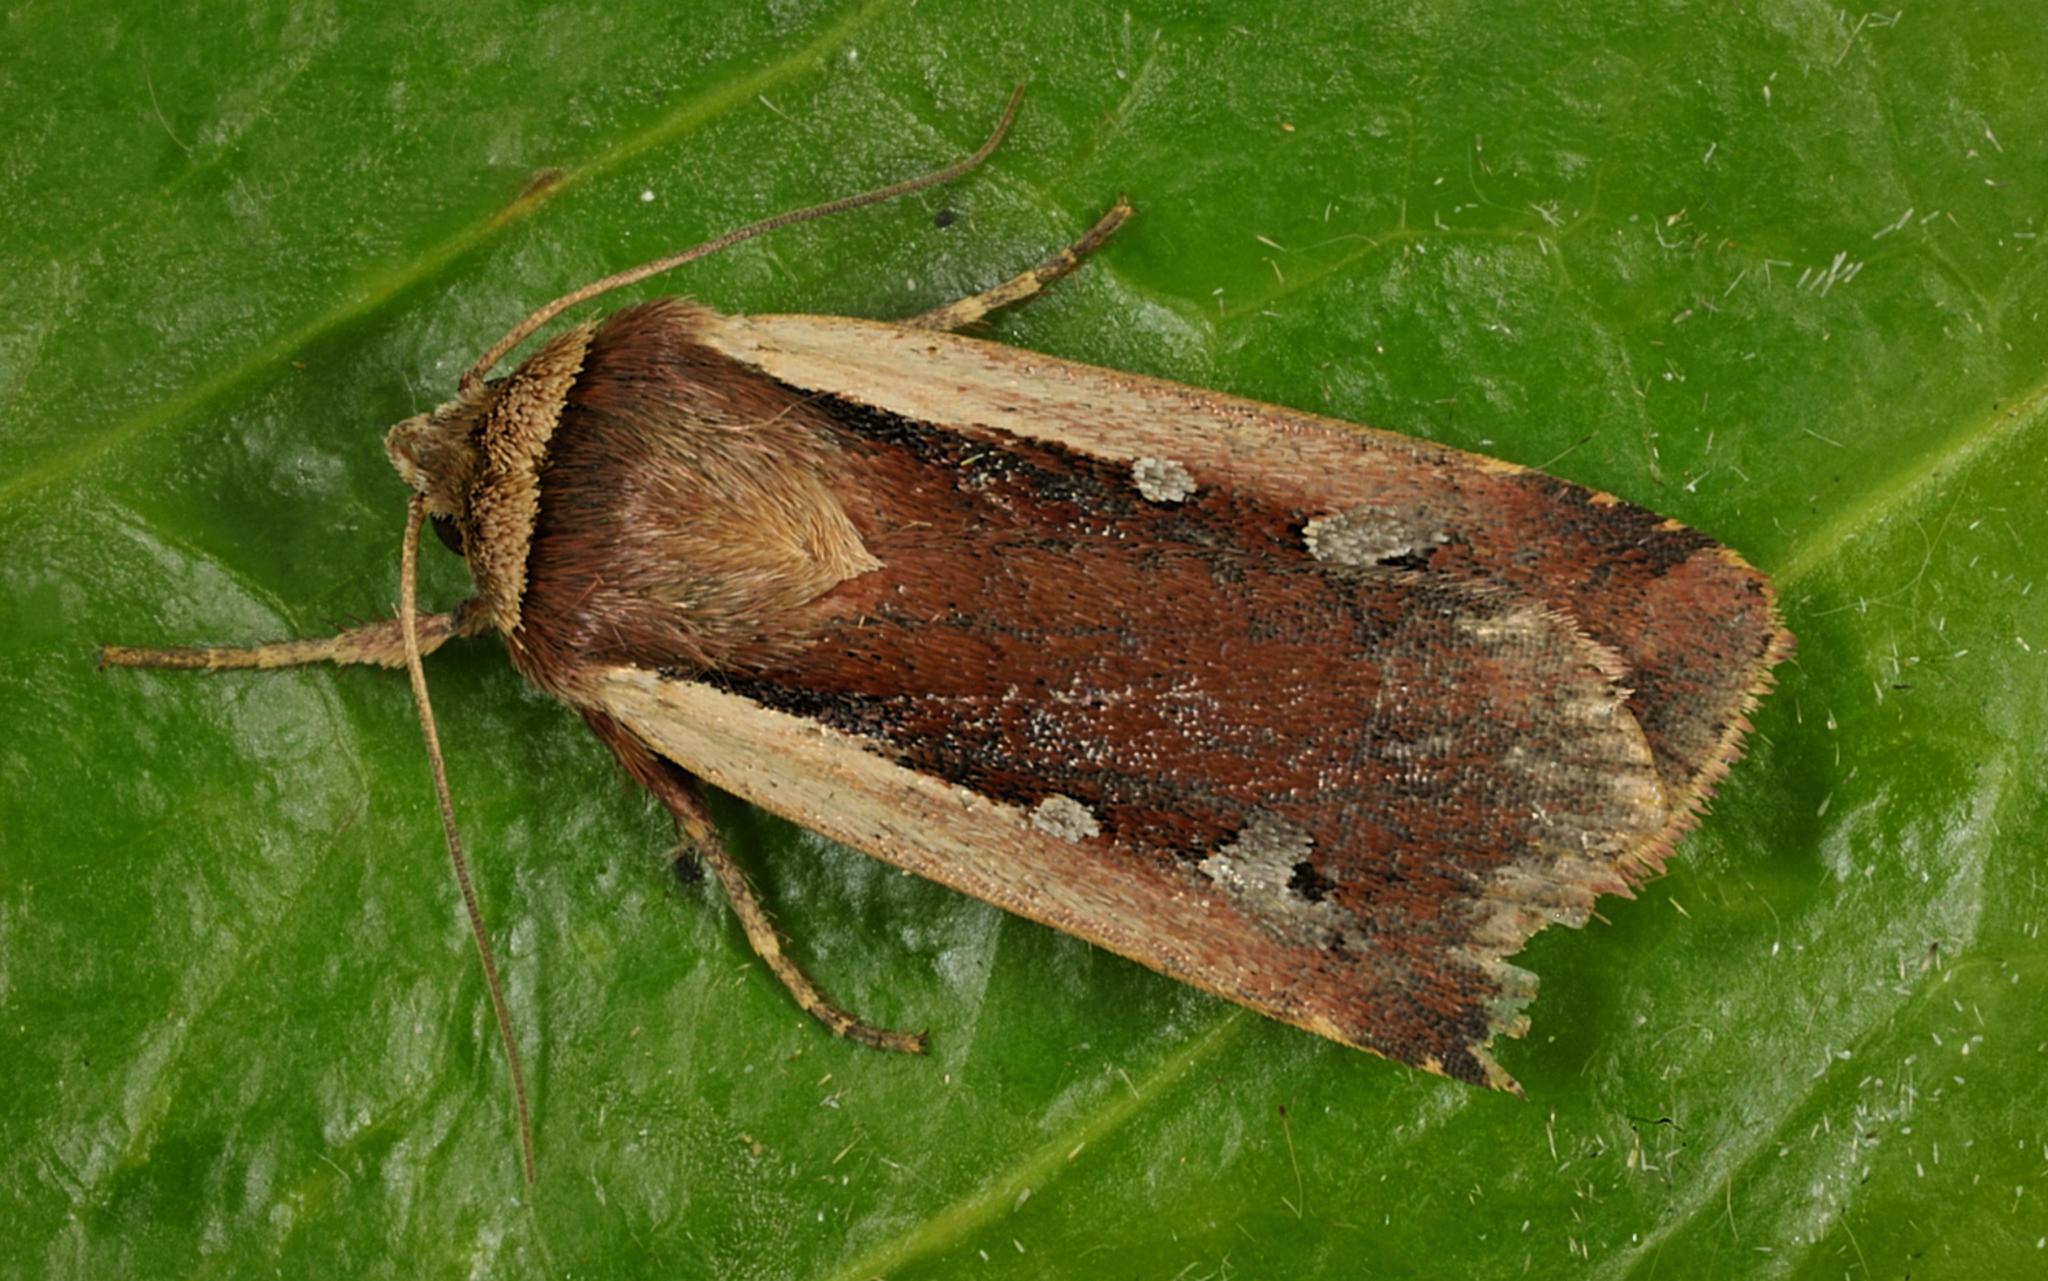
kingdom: Animalia
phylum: Arthropoda
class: Insecta
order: Lepidoptera
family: Noctuidae
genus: Ochropleura
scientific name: Ochropleura plecta
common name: Flame shoulder
